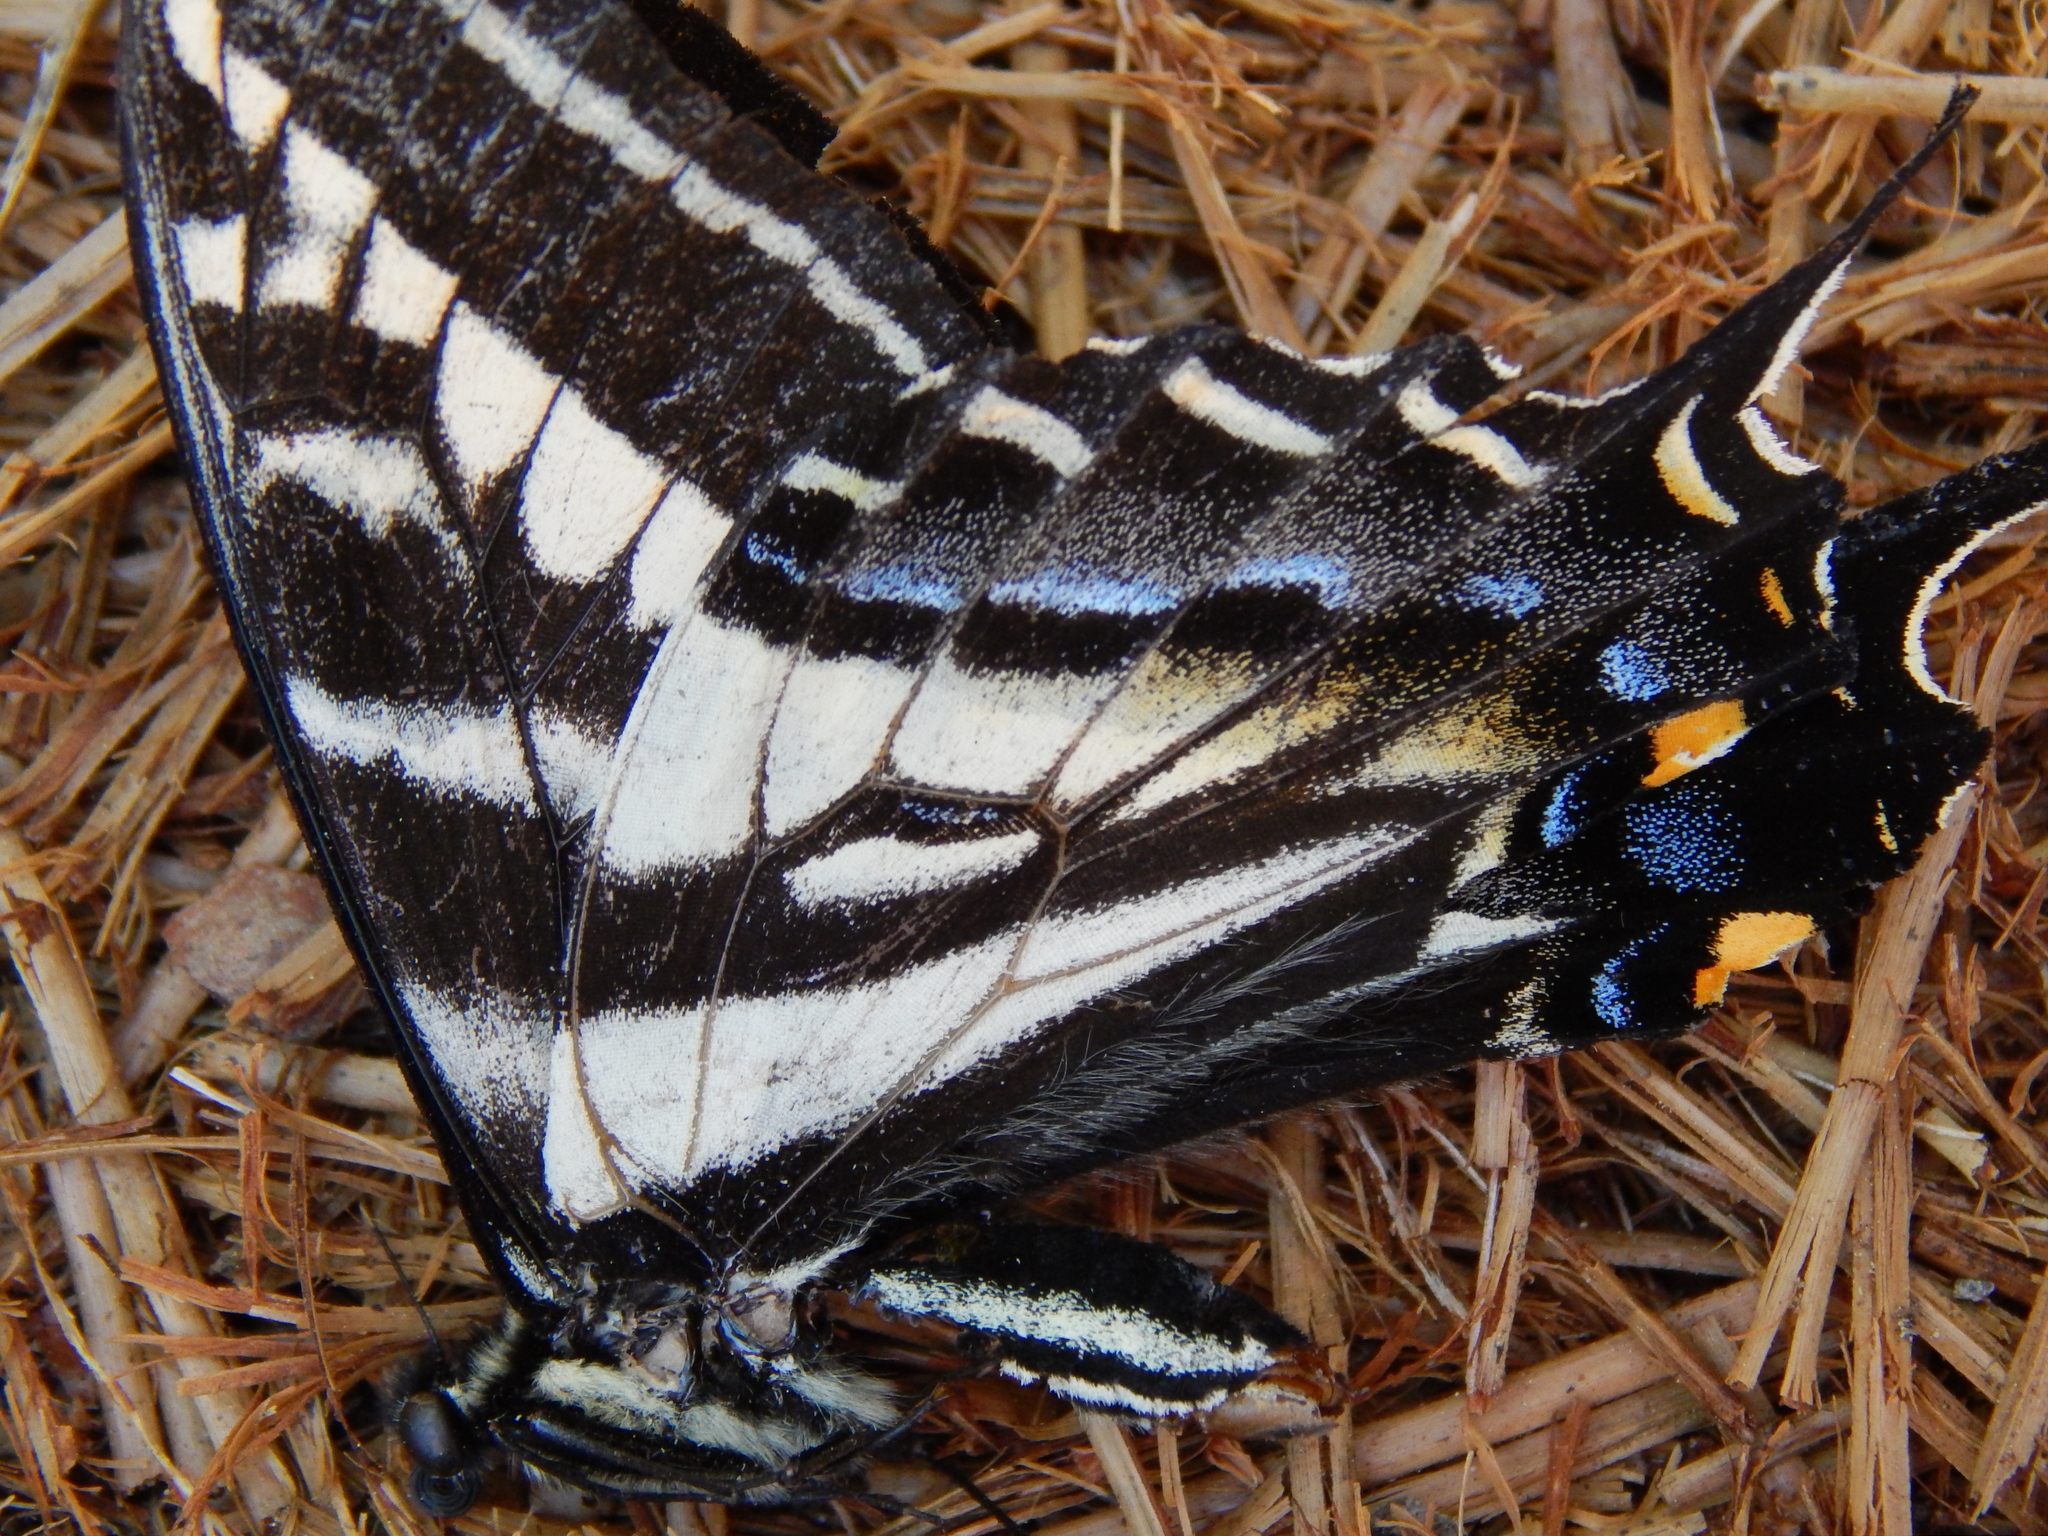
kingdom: Animalia
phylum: Arthropoda
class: Insecta
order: Lepidoptera
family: Papilionidae
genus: Papilio
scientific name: Papilio eurymedon
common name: Pale tiger swallowtail
